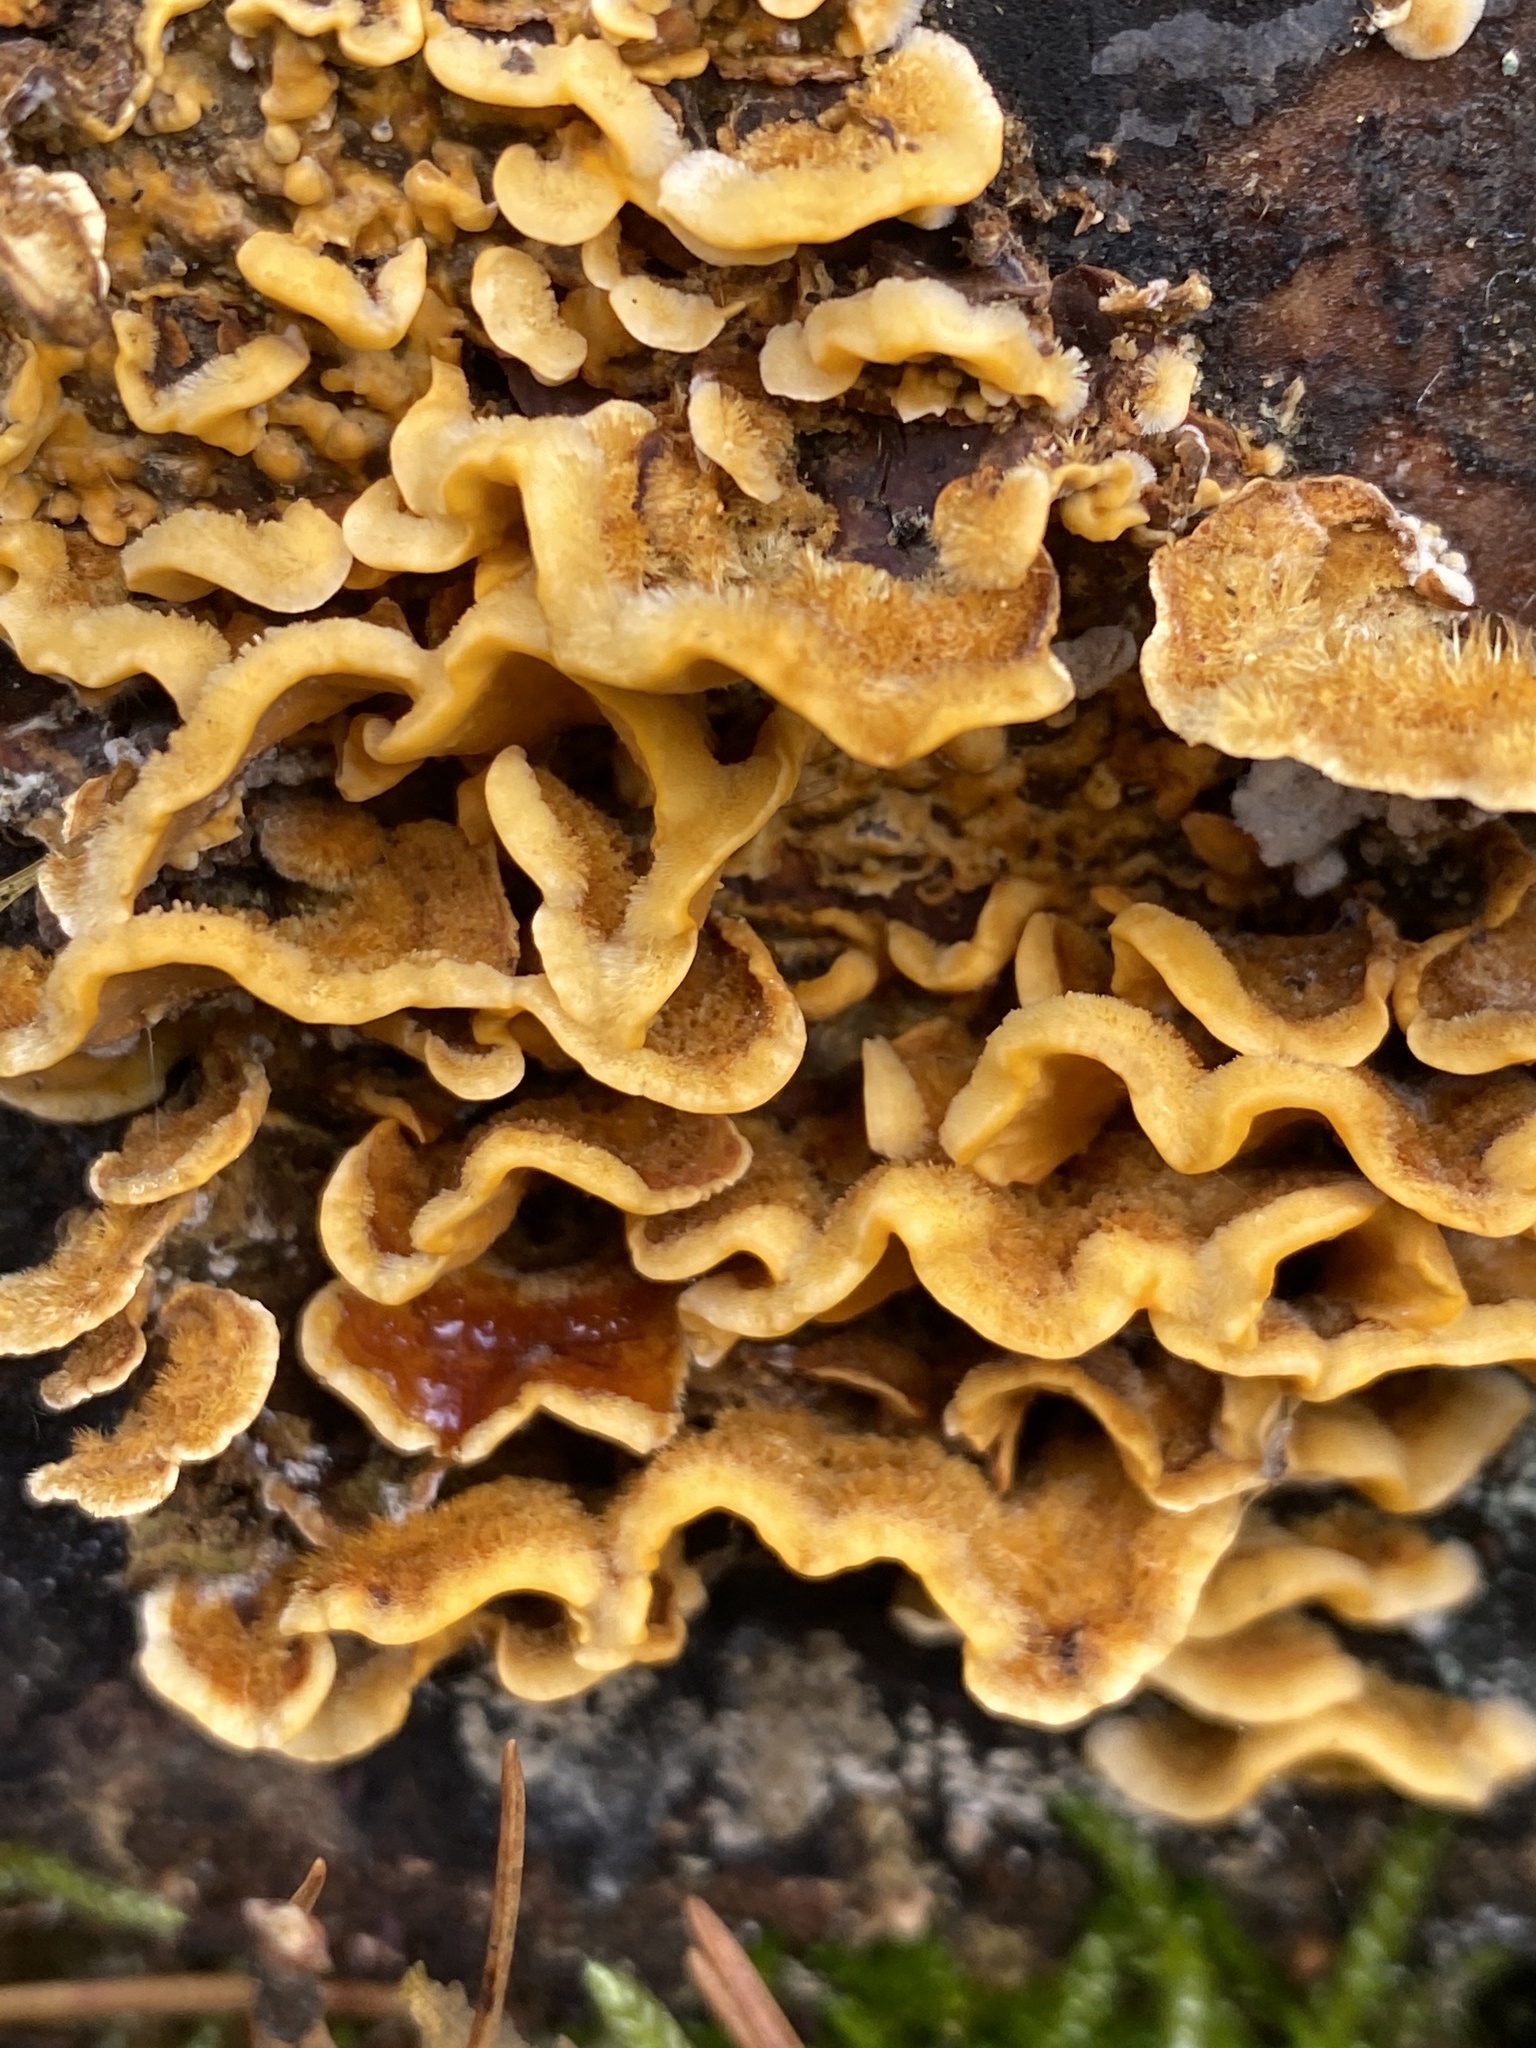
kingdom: Fungi
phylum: Basidiomycota
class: Agaricomycetes
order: Russulales
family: Stereaceae
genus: Stereum
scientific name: Stereum hirsutum
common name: Hairy curtain crust
